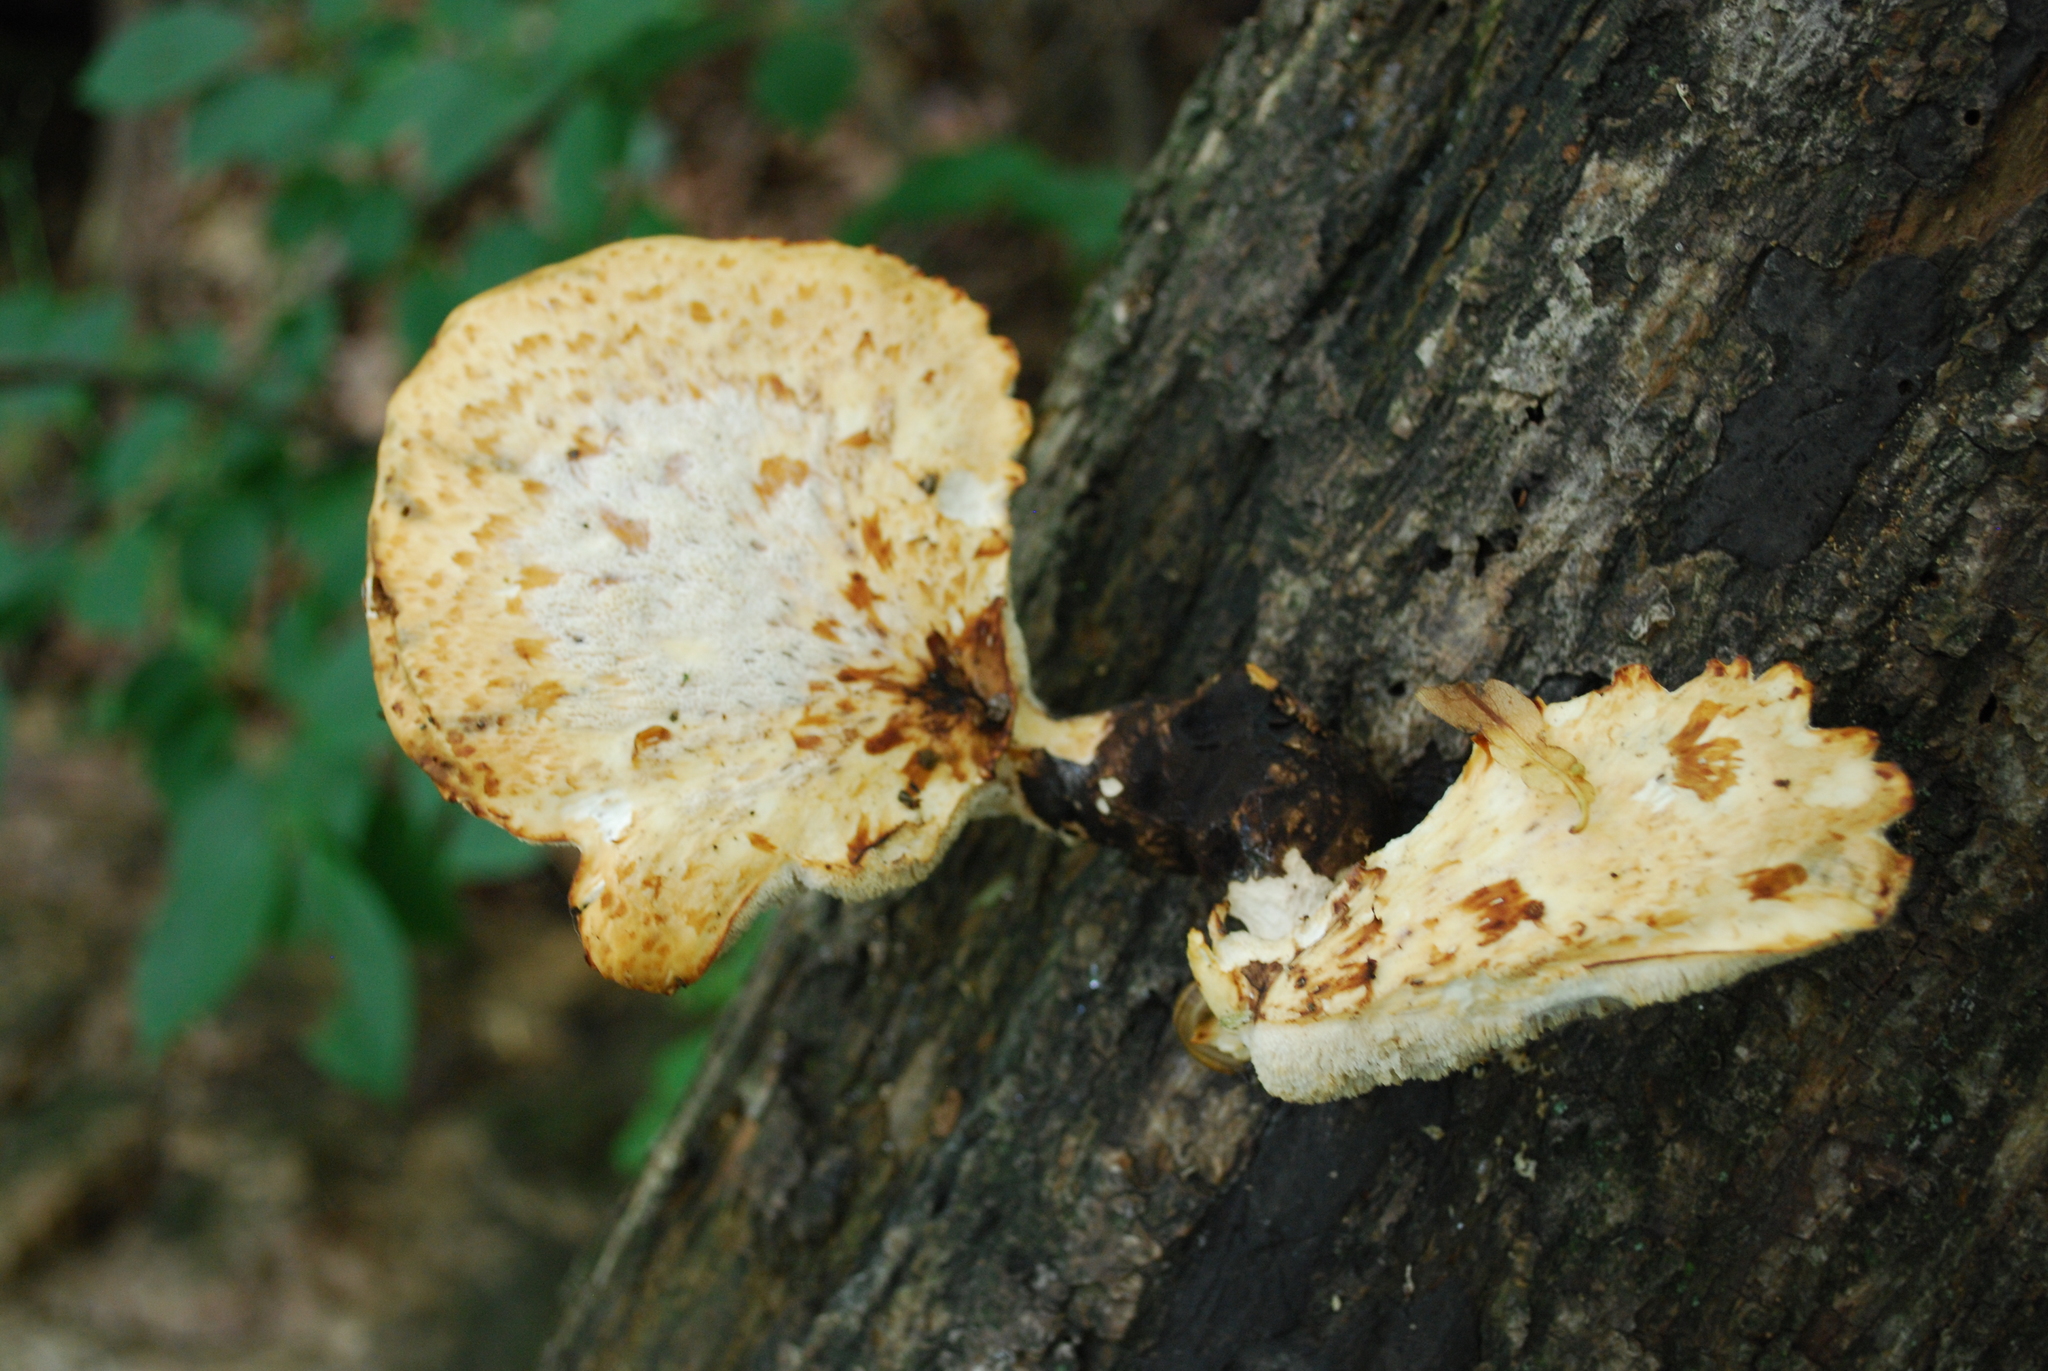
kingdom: Fungi
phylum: Basidiomycota
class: Agaricomycetes
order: Polyporales
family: Polyporaceae
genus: Cerioporus
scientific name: Cerioporus squamosus
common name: Dryad's saddle
